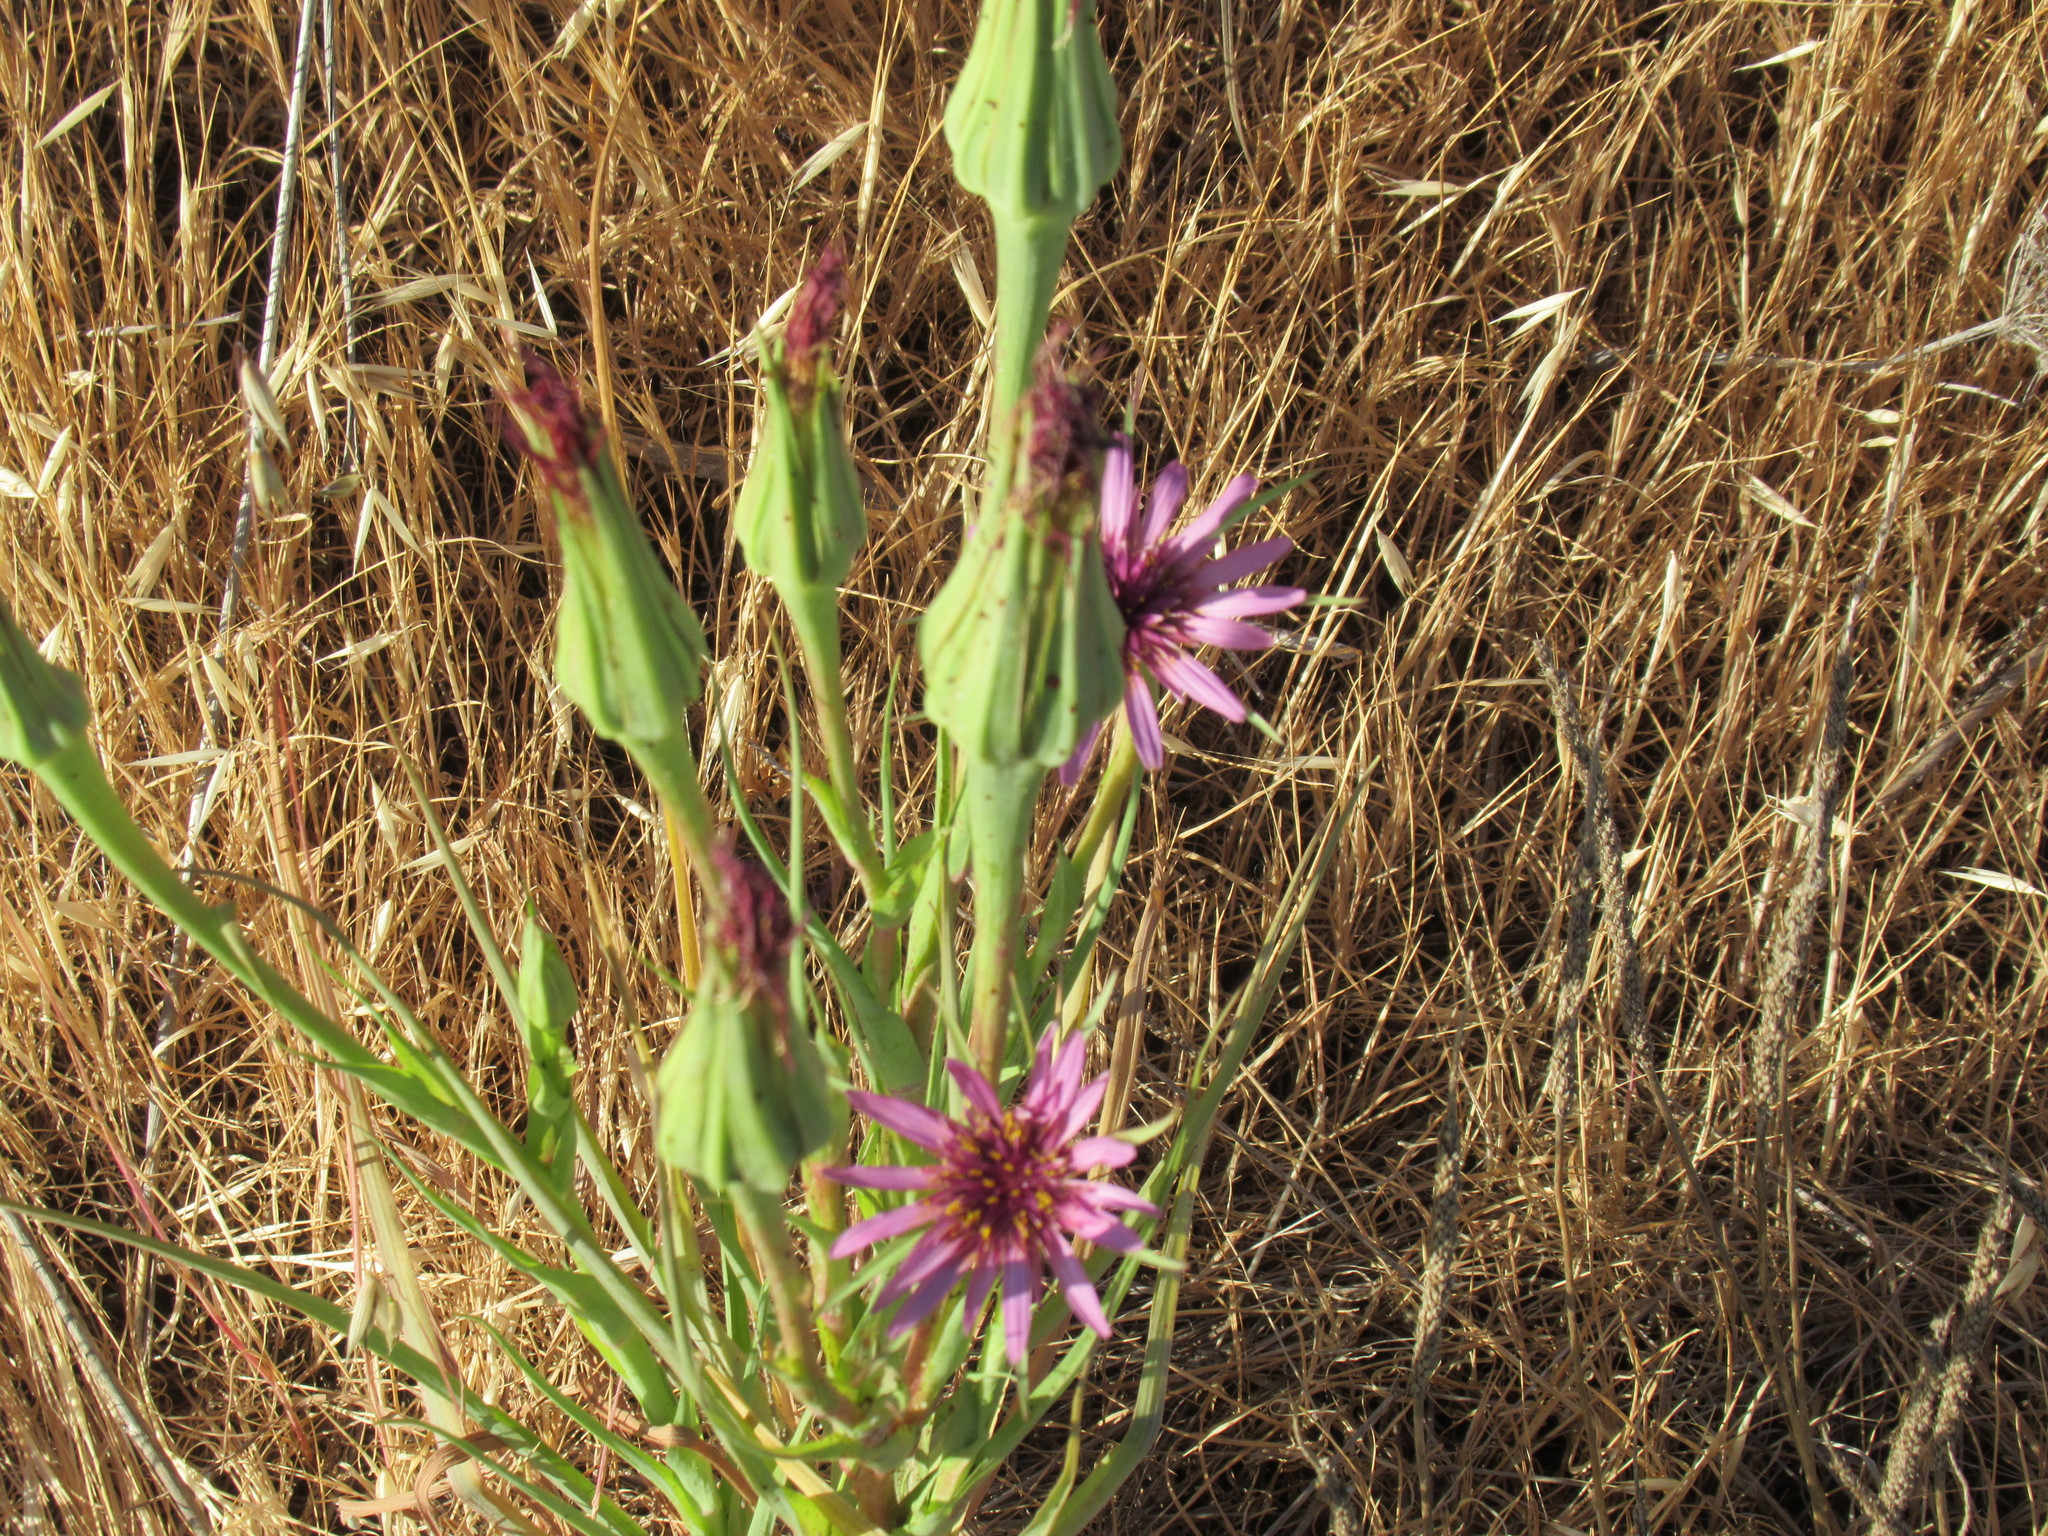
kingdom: Plantae
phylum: Tracheophyta
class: Magnoliopsida
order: Asterales
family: Asteraceae
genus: Tragopogon
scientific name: Tragopogon porrifolius
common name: Salsify
